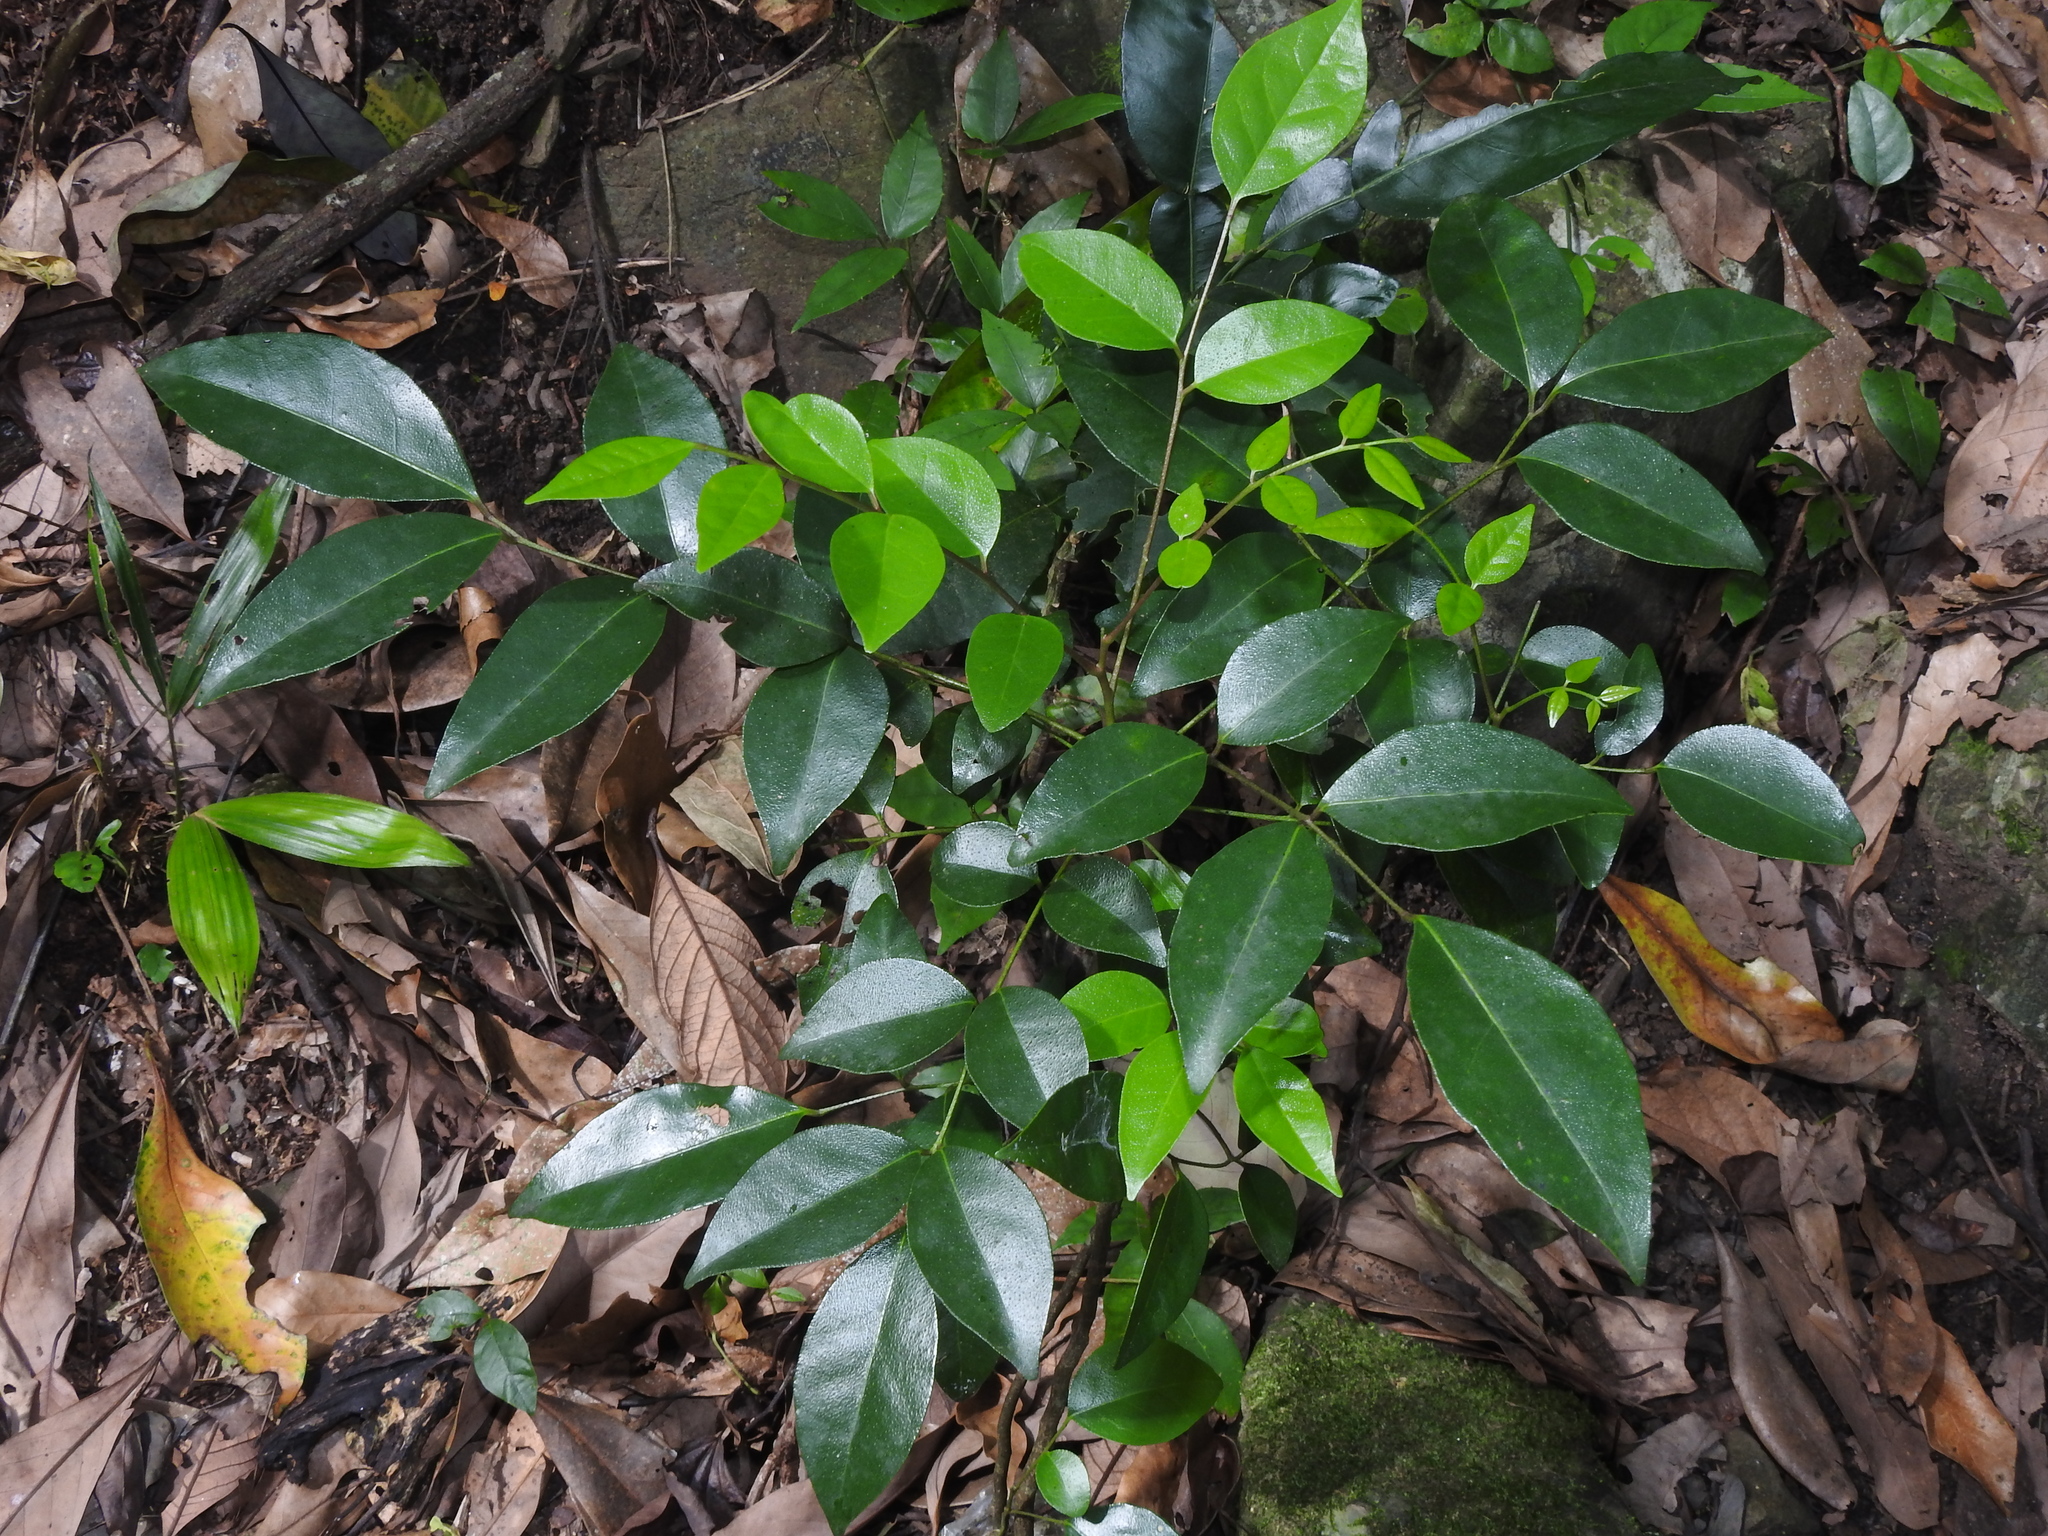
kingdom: Plantae
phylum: Tracheophyta
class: Magnoliopsida
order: Sapindales
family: Rutaceae
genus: Murraya
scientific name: Murraya euchrestifolia
